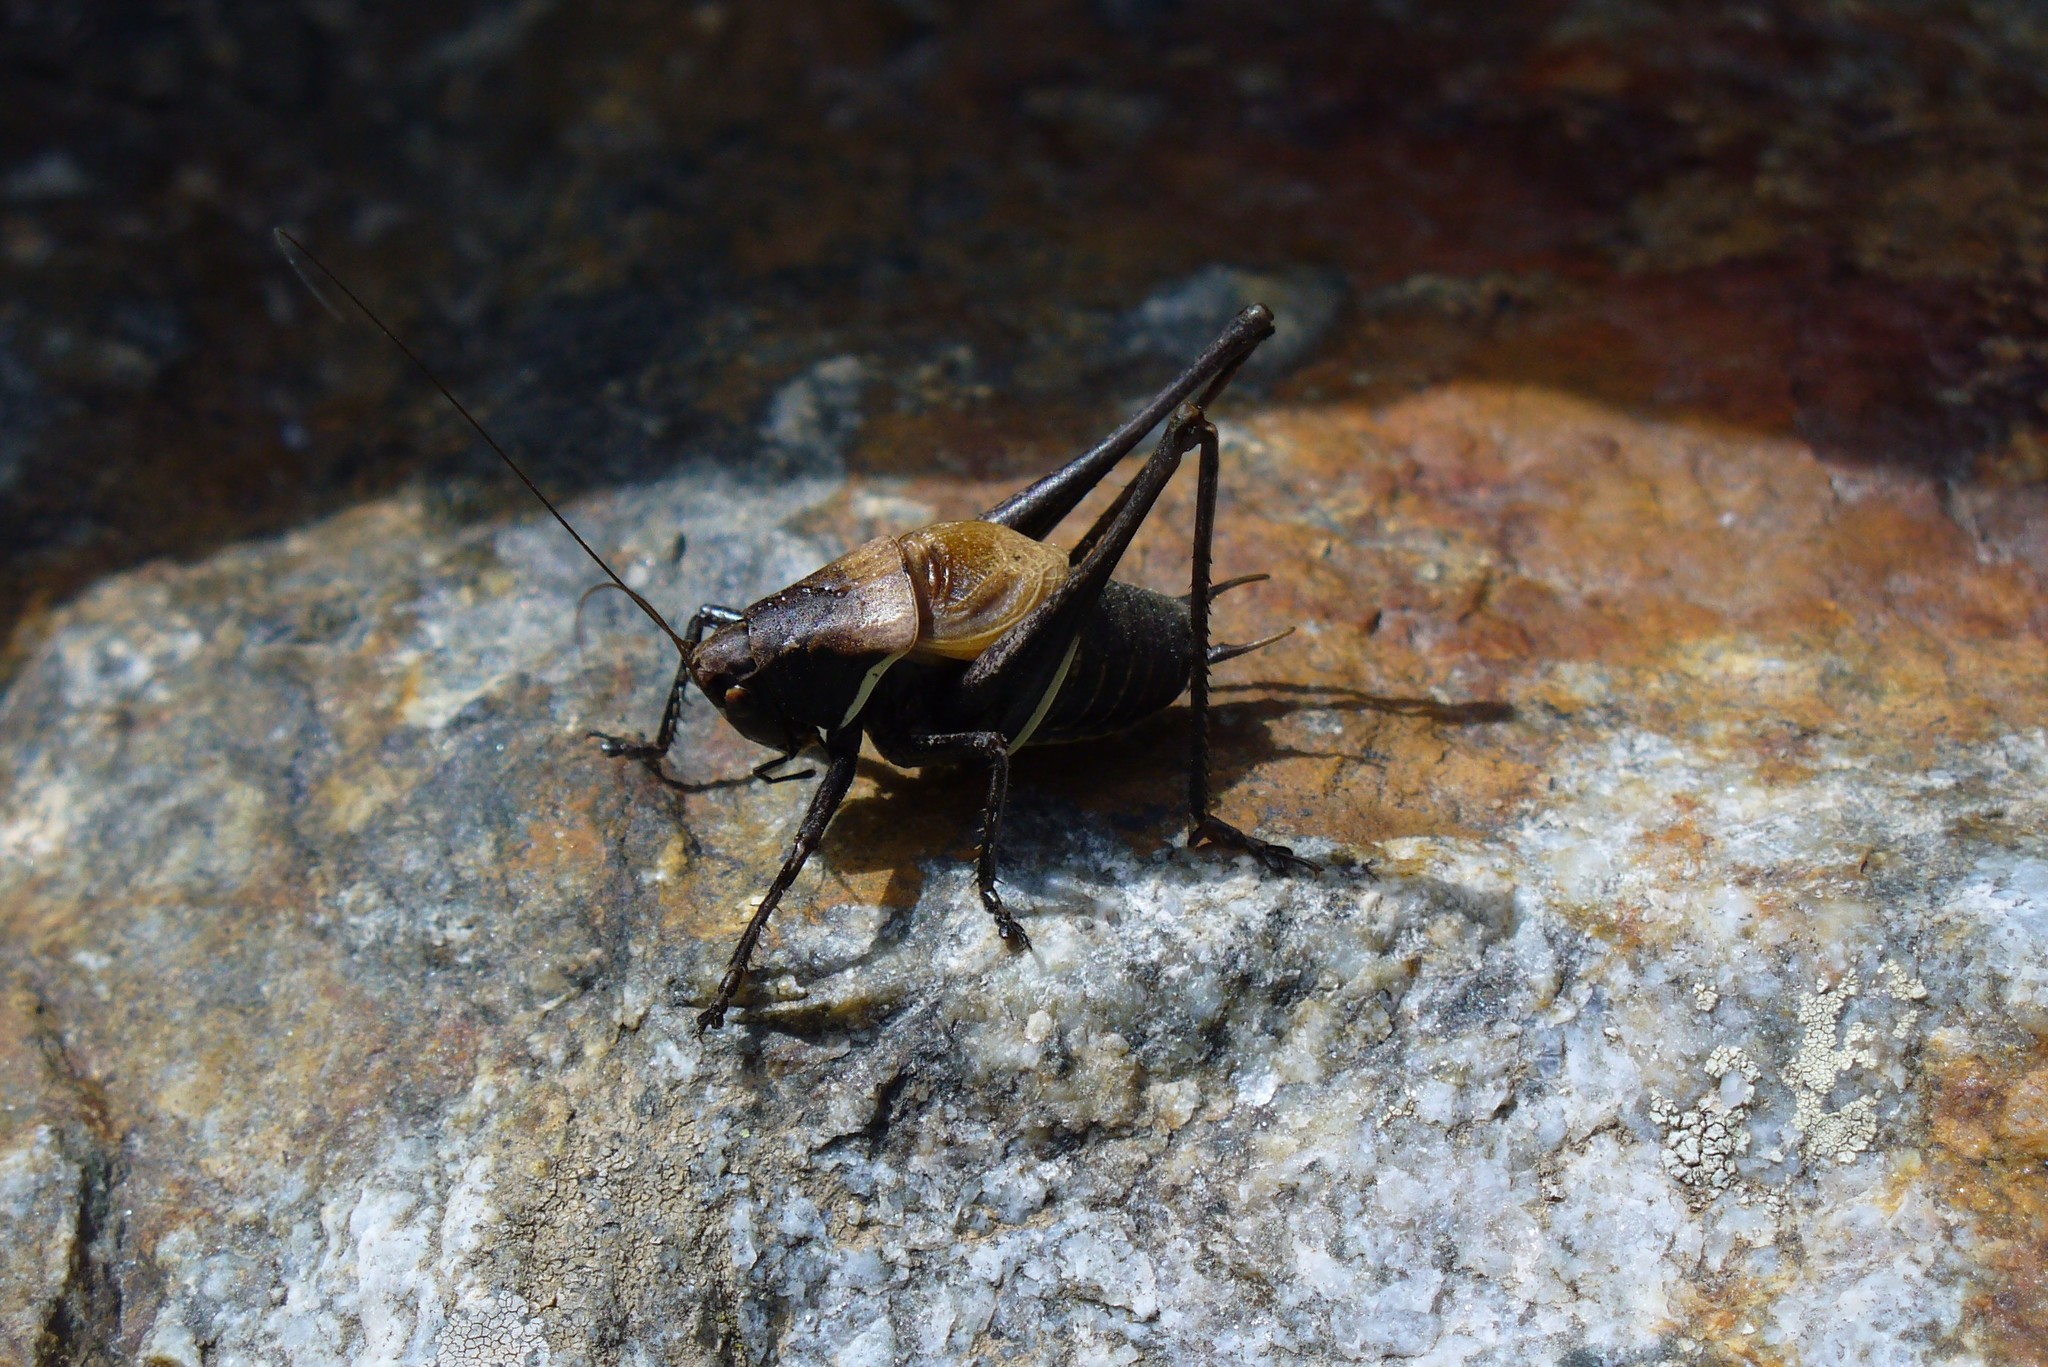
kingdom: Animalia
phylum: Arthropoda
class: Insecta
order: Orthoptera
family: Tettigoniidae
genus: Pholidoptera
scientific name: Pholidoptera aptera
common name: Alpine dark bush-cricket
